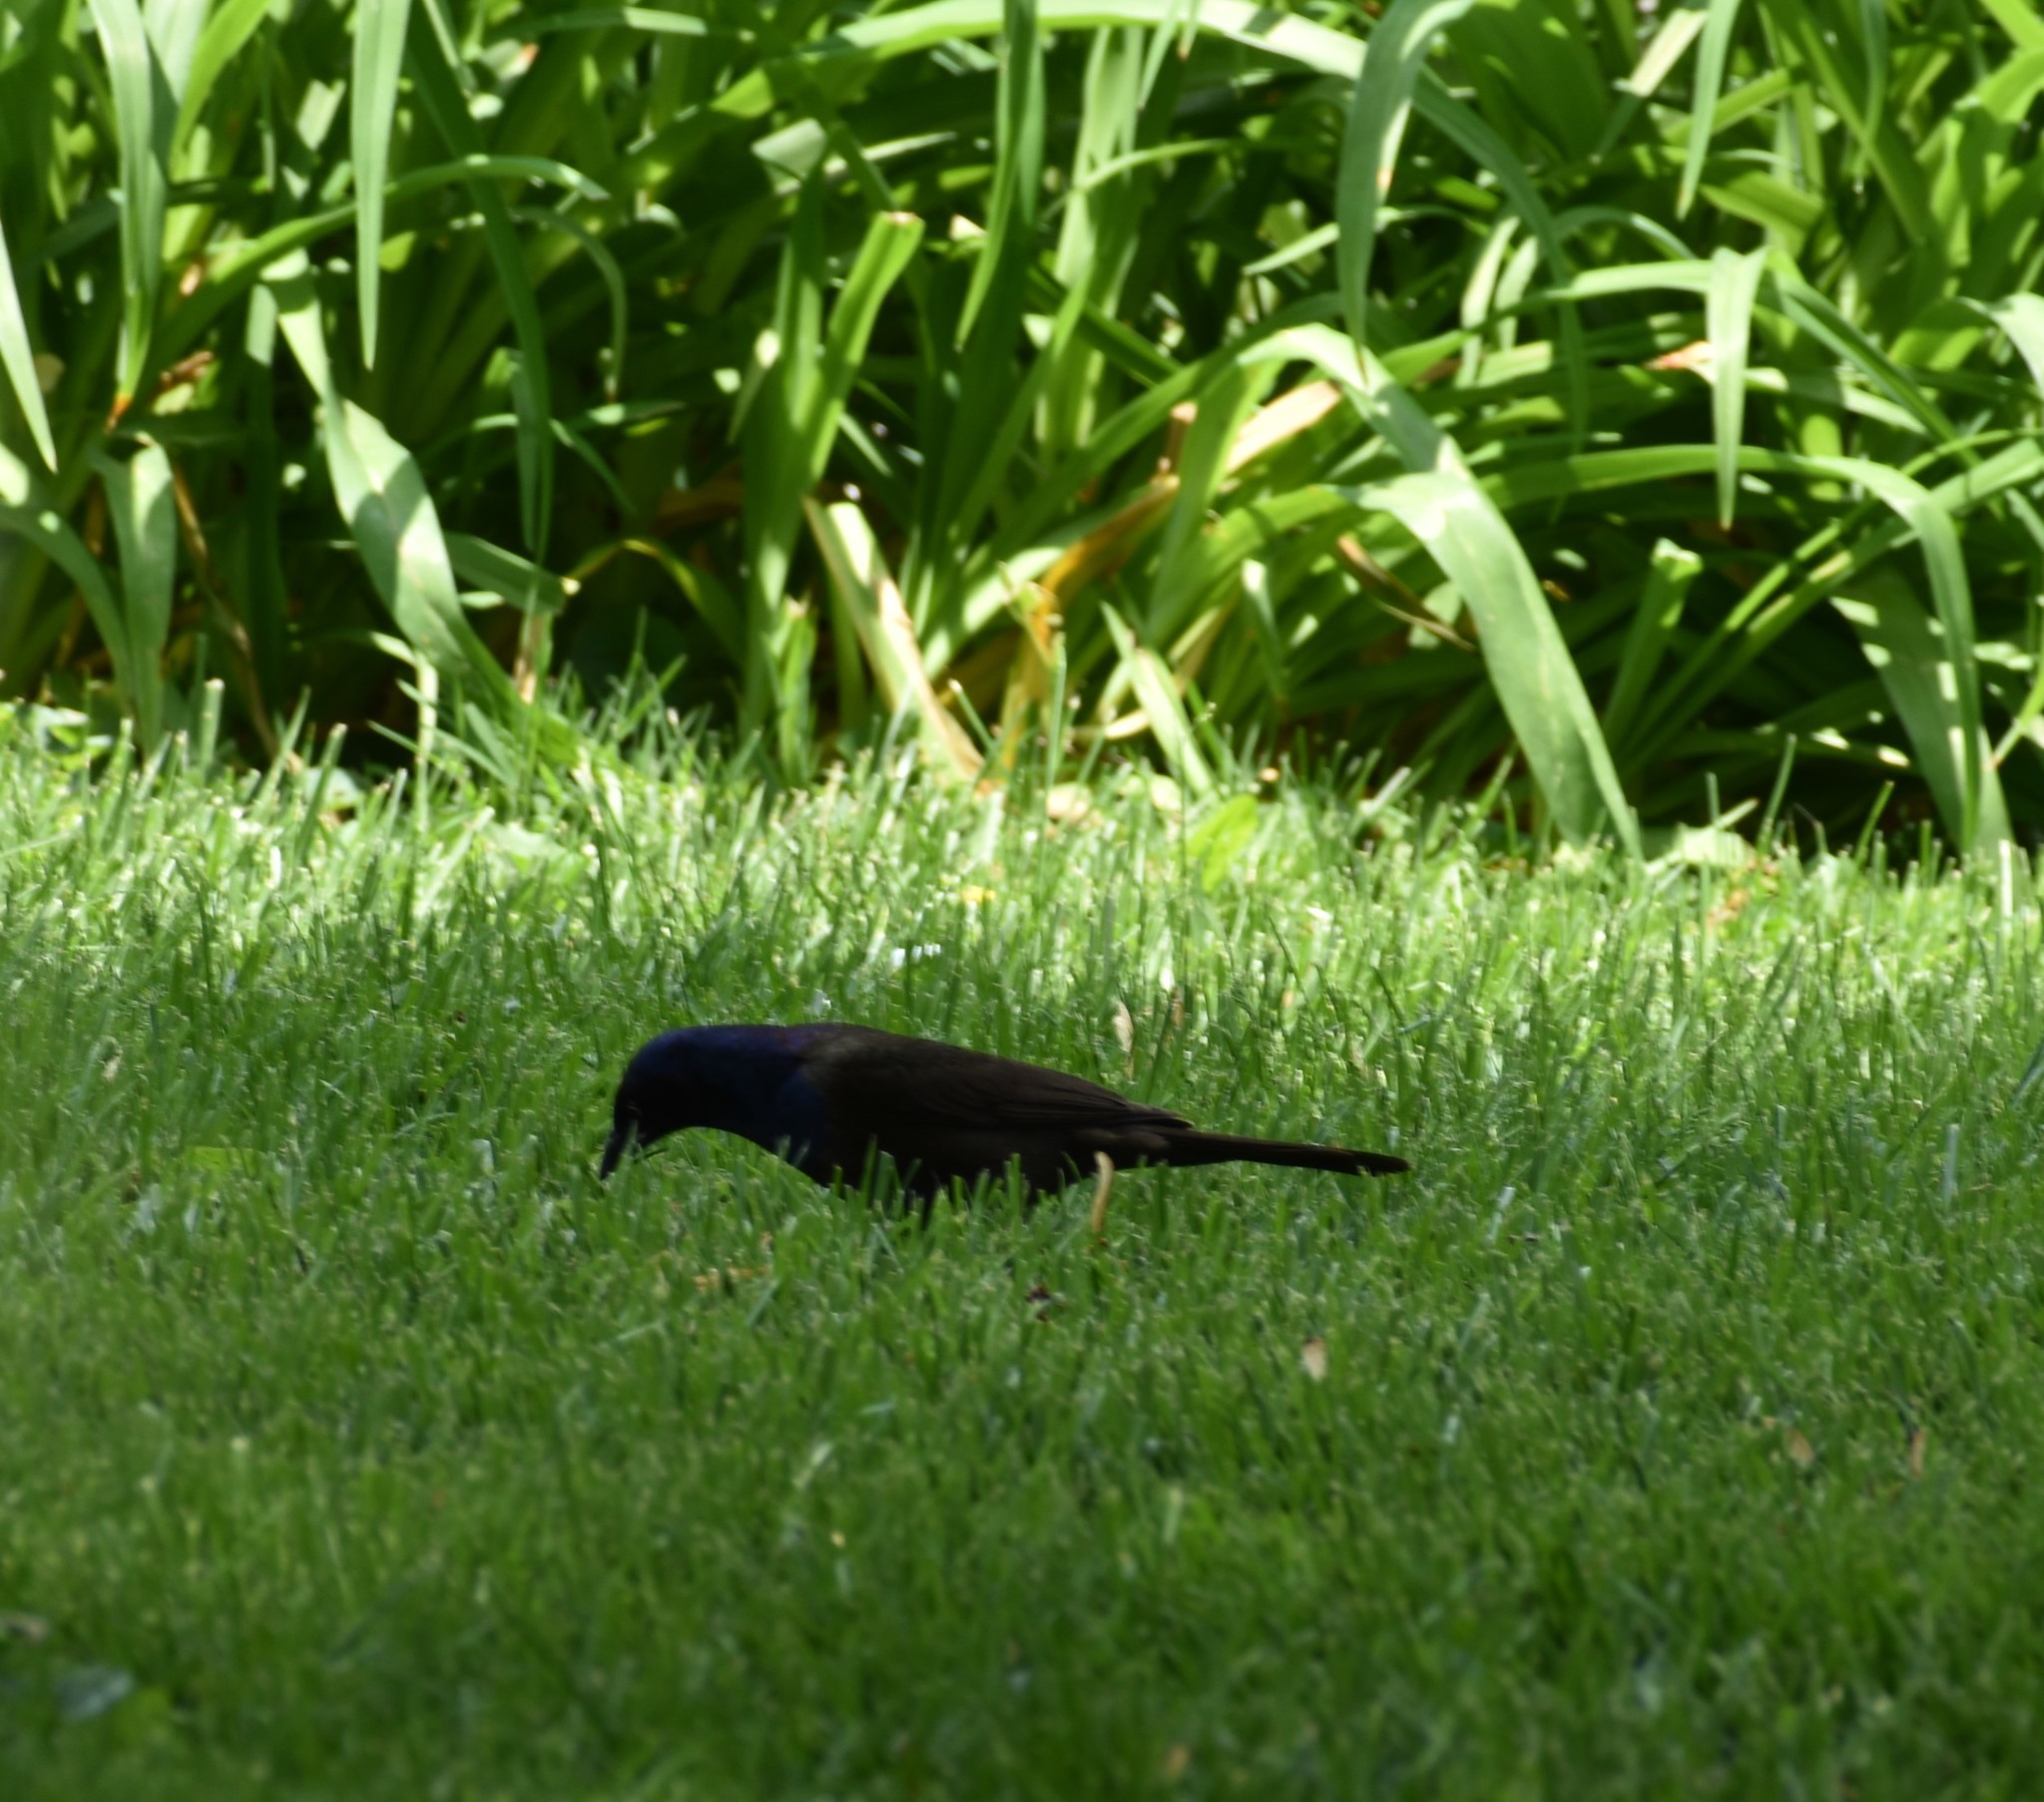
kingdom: Animalia
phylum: Chordata
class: Aves
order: Passeriformes
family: Icteridae
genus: Quiscalus
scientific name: Quiscalus quiscula
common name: Common grackle
